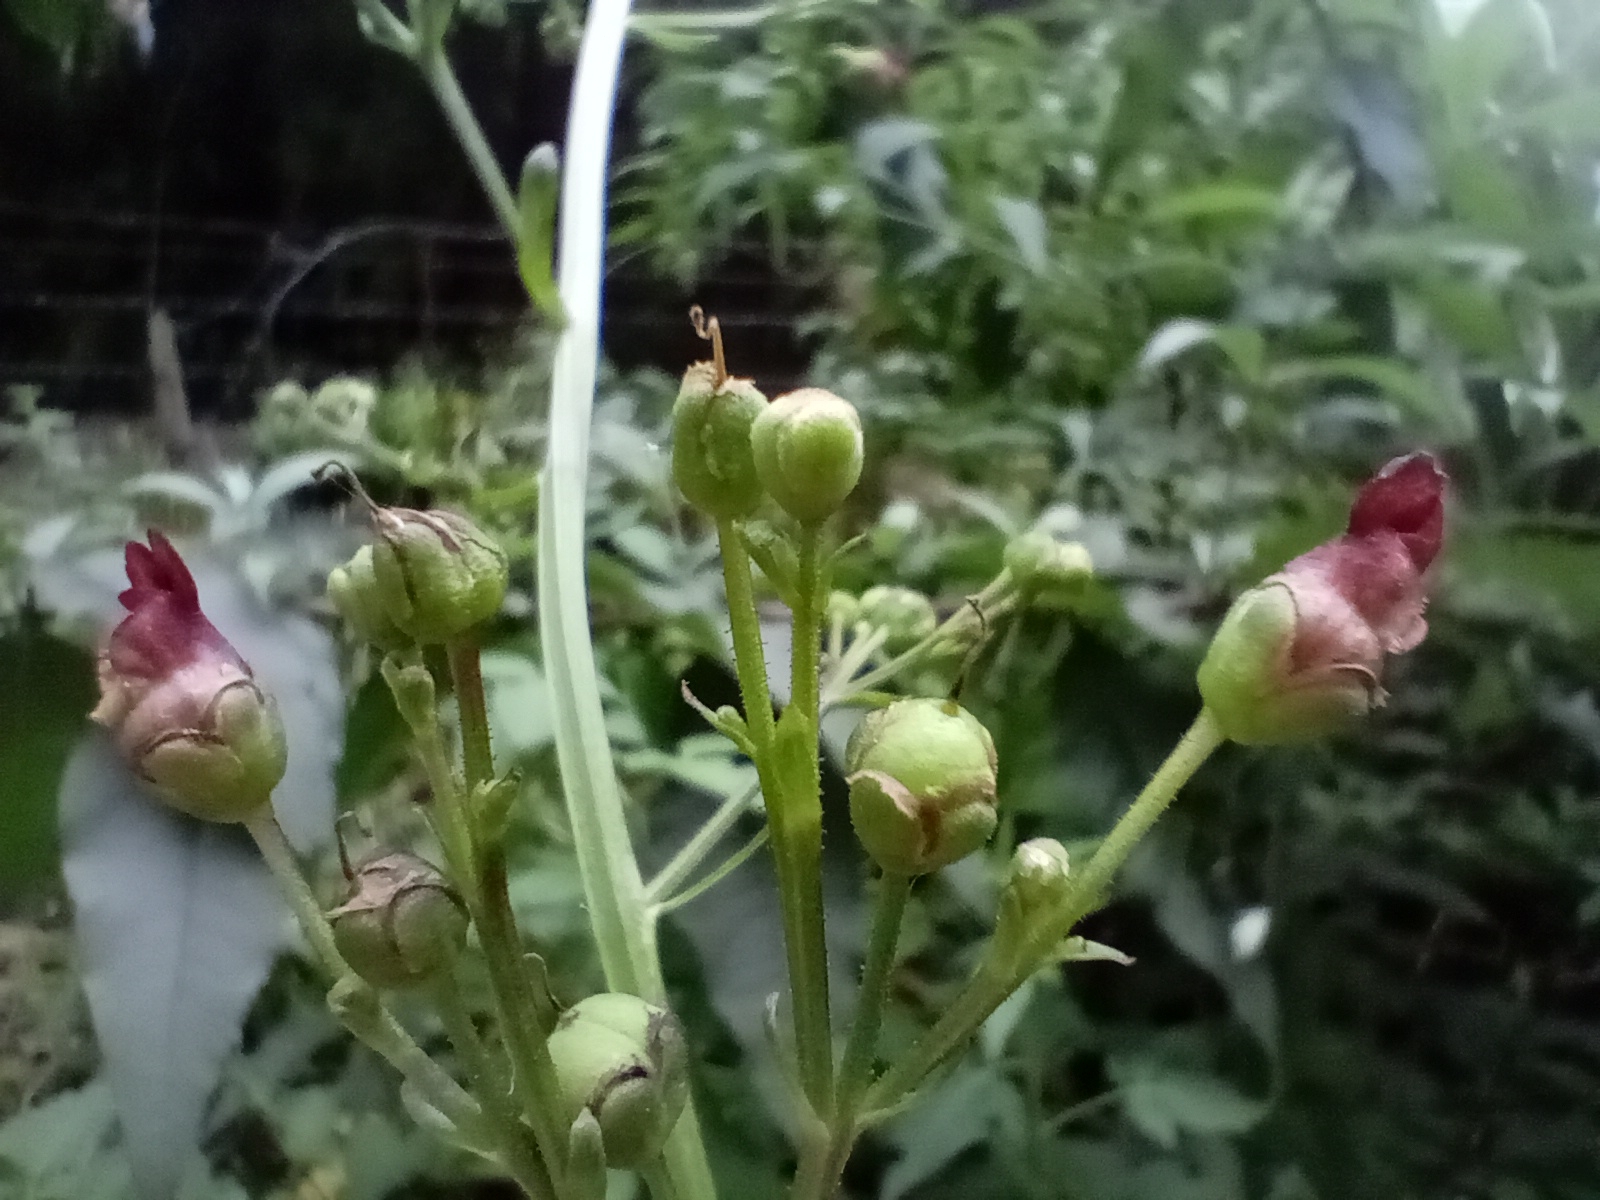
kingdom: Plantae
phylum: Tracheophyta
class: Magnoliopsida
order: Lamiales
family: Scrophulariaceae
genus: Scrophularia
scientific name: Scrophularia auriculata
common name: Water betony
